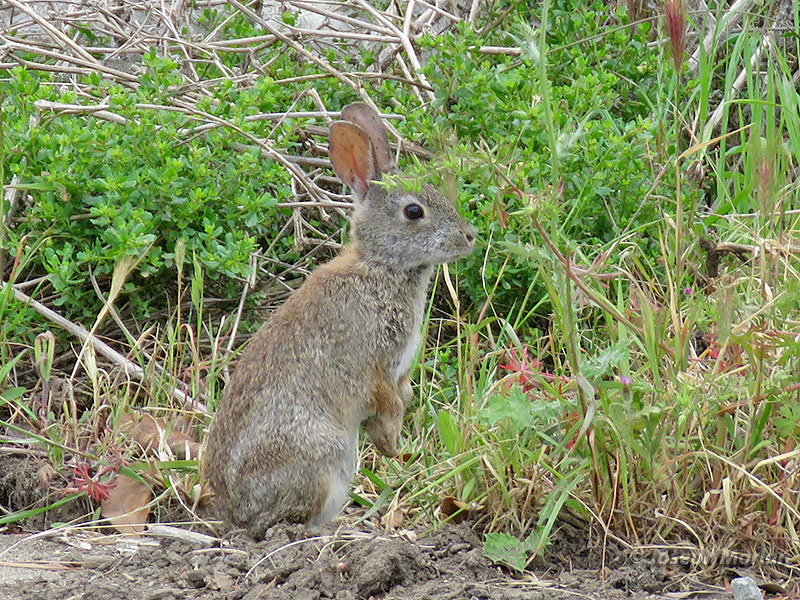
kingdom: Animalia
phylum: Chordata
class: Mammalia
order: Lagomorpha
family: Leporidae
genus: Sylvilagus
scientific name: Sylvilagus bachmani
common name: Brush rabbit
